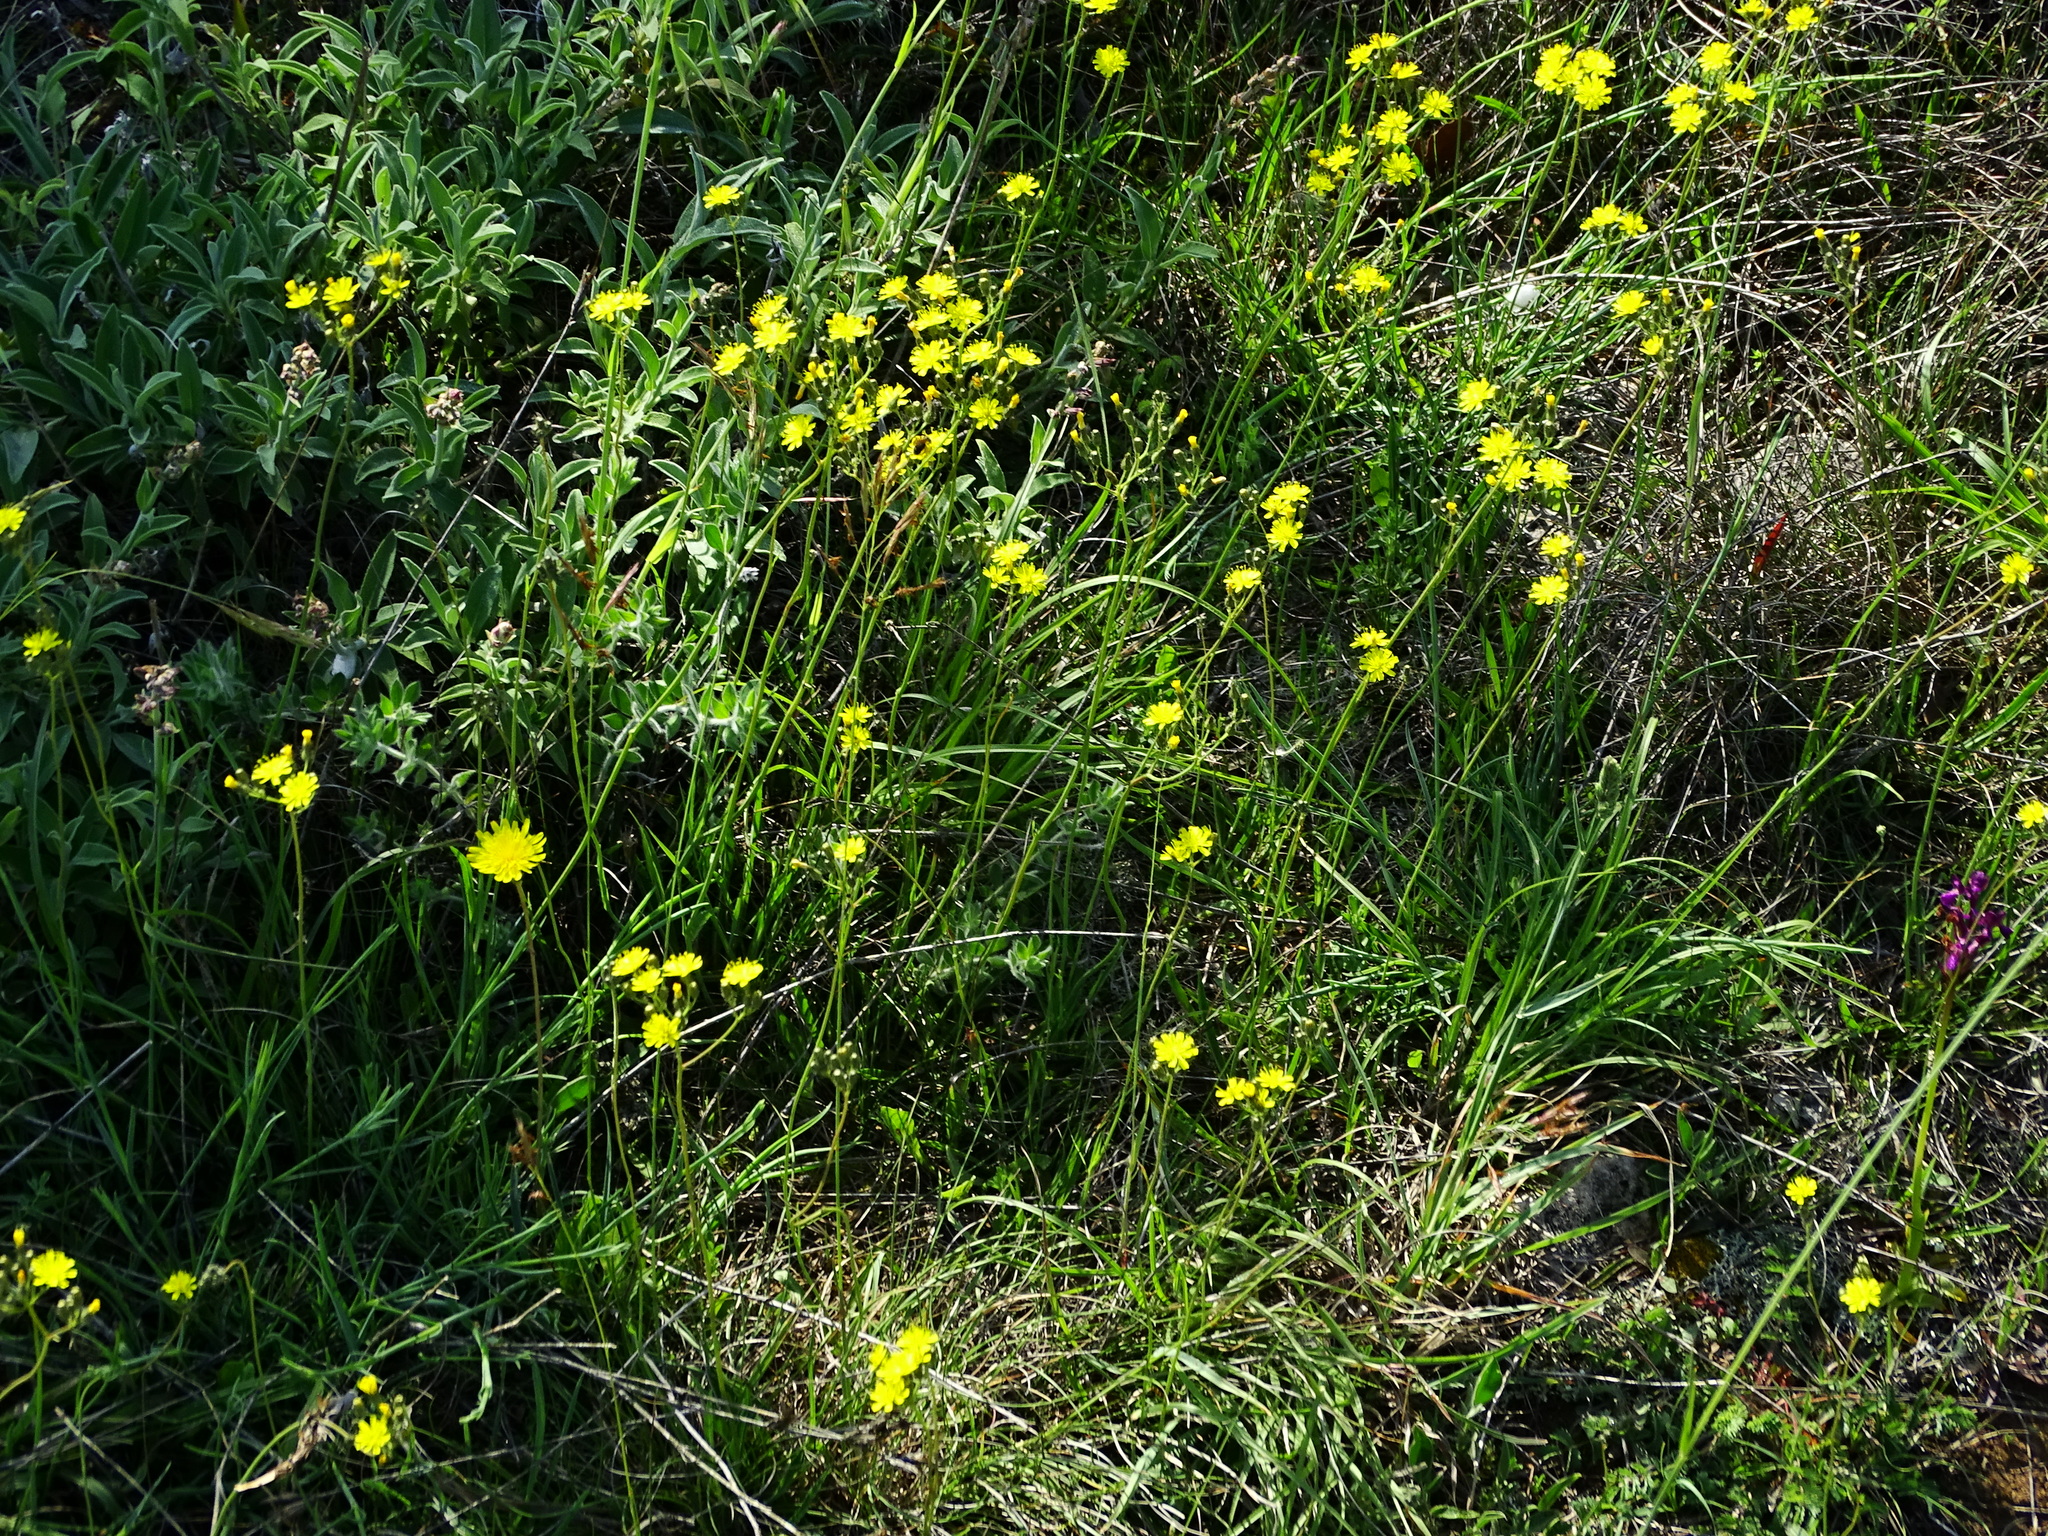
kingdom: Plantae
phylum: Tracheophyta
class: Magnoliopsida
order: Asterales
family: Asteraceae
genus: Pilosella
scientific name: Pilosella piloselloides
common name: Glaucous king-devil
